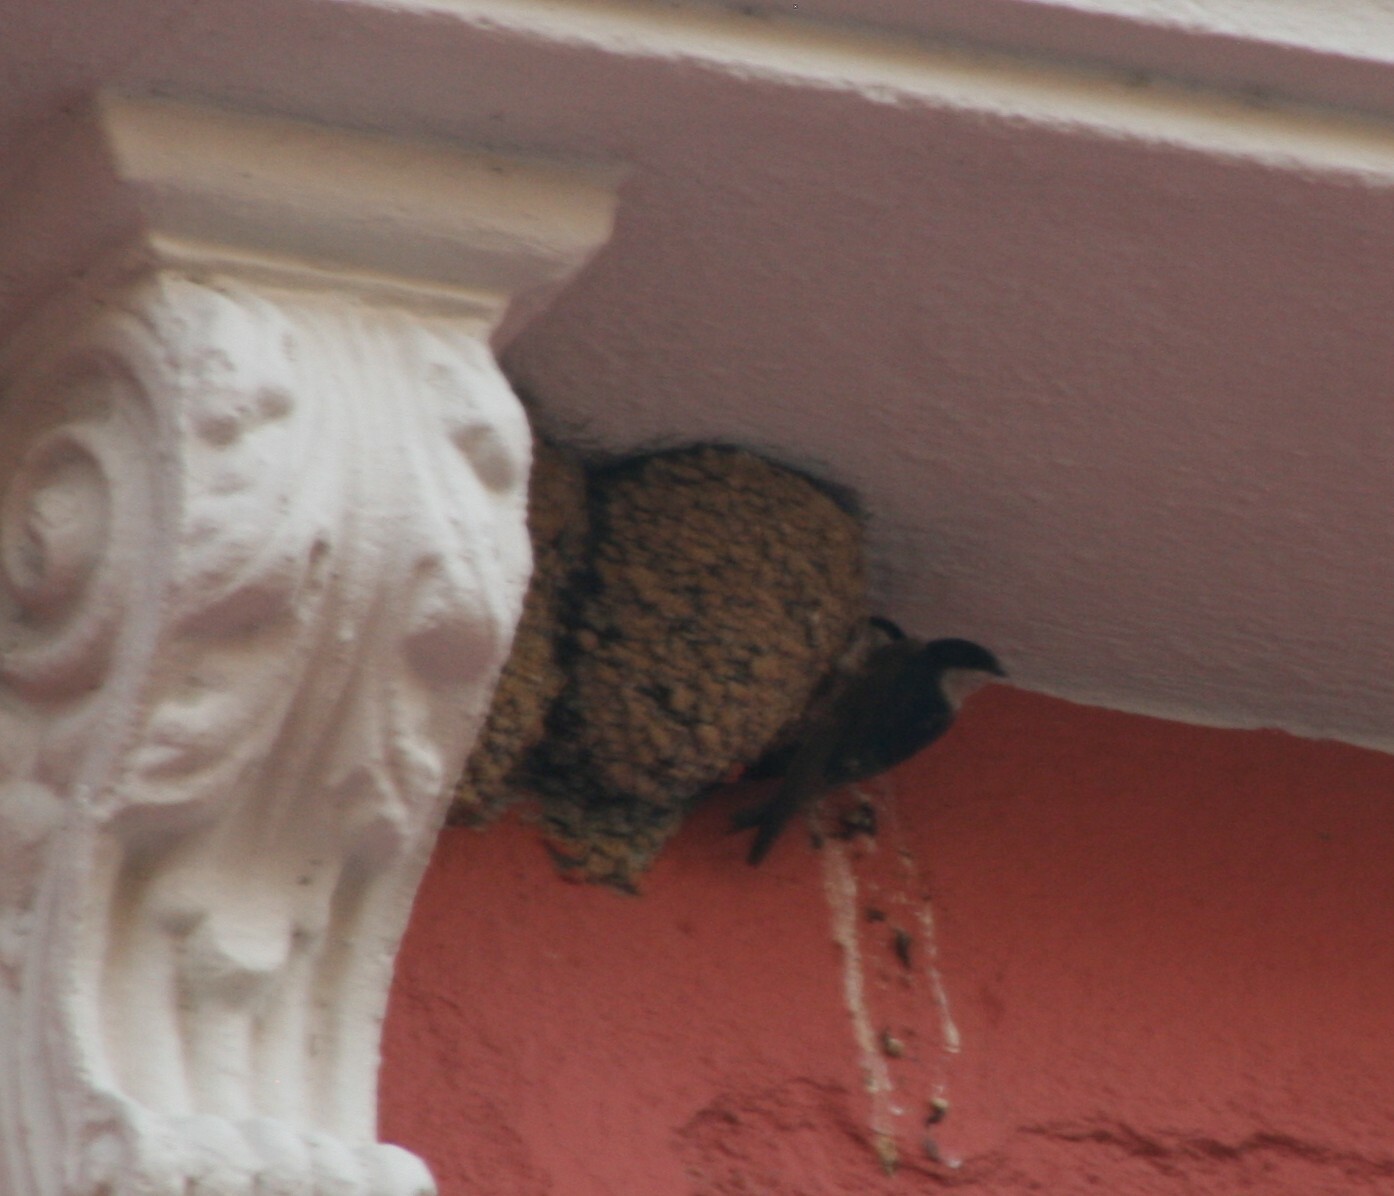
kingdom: Animalia
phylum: Chordata
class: Aves
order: Passeriformes
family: Hirundinidae
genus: Delichon
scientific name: Delichon urbicum
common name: Common house martin
